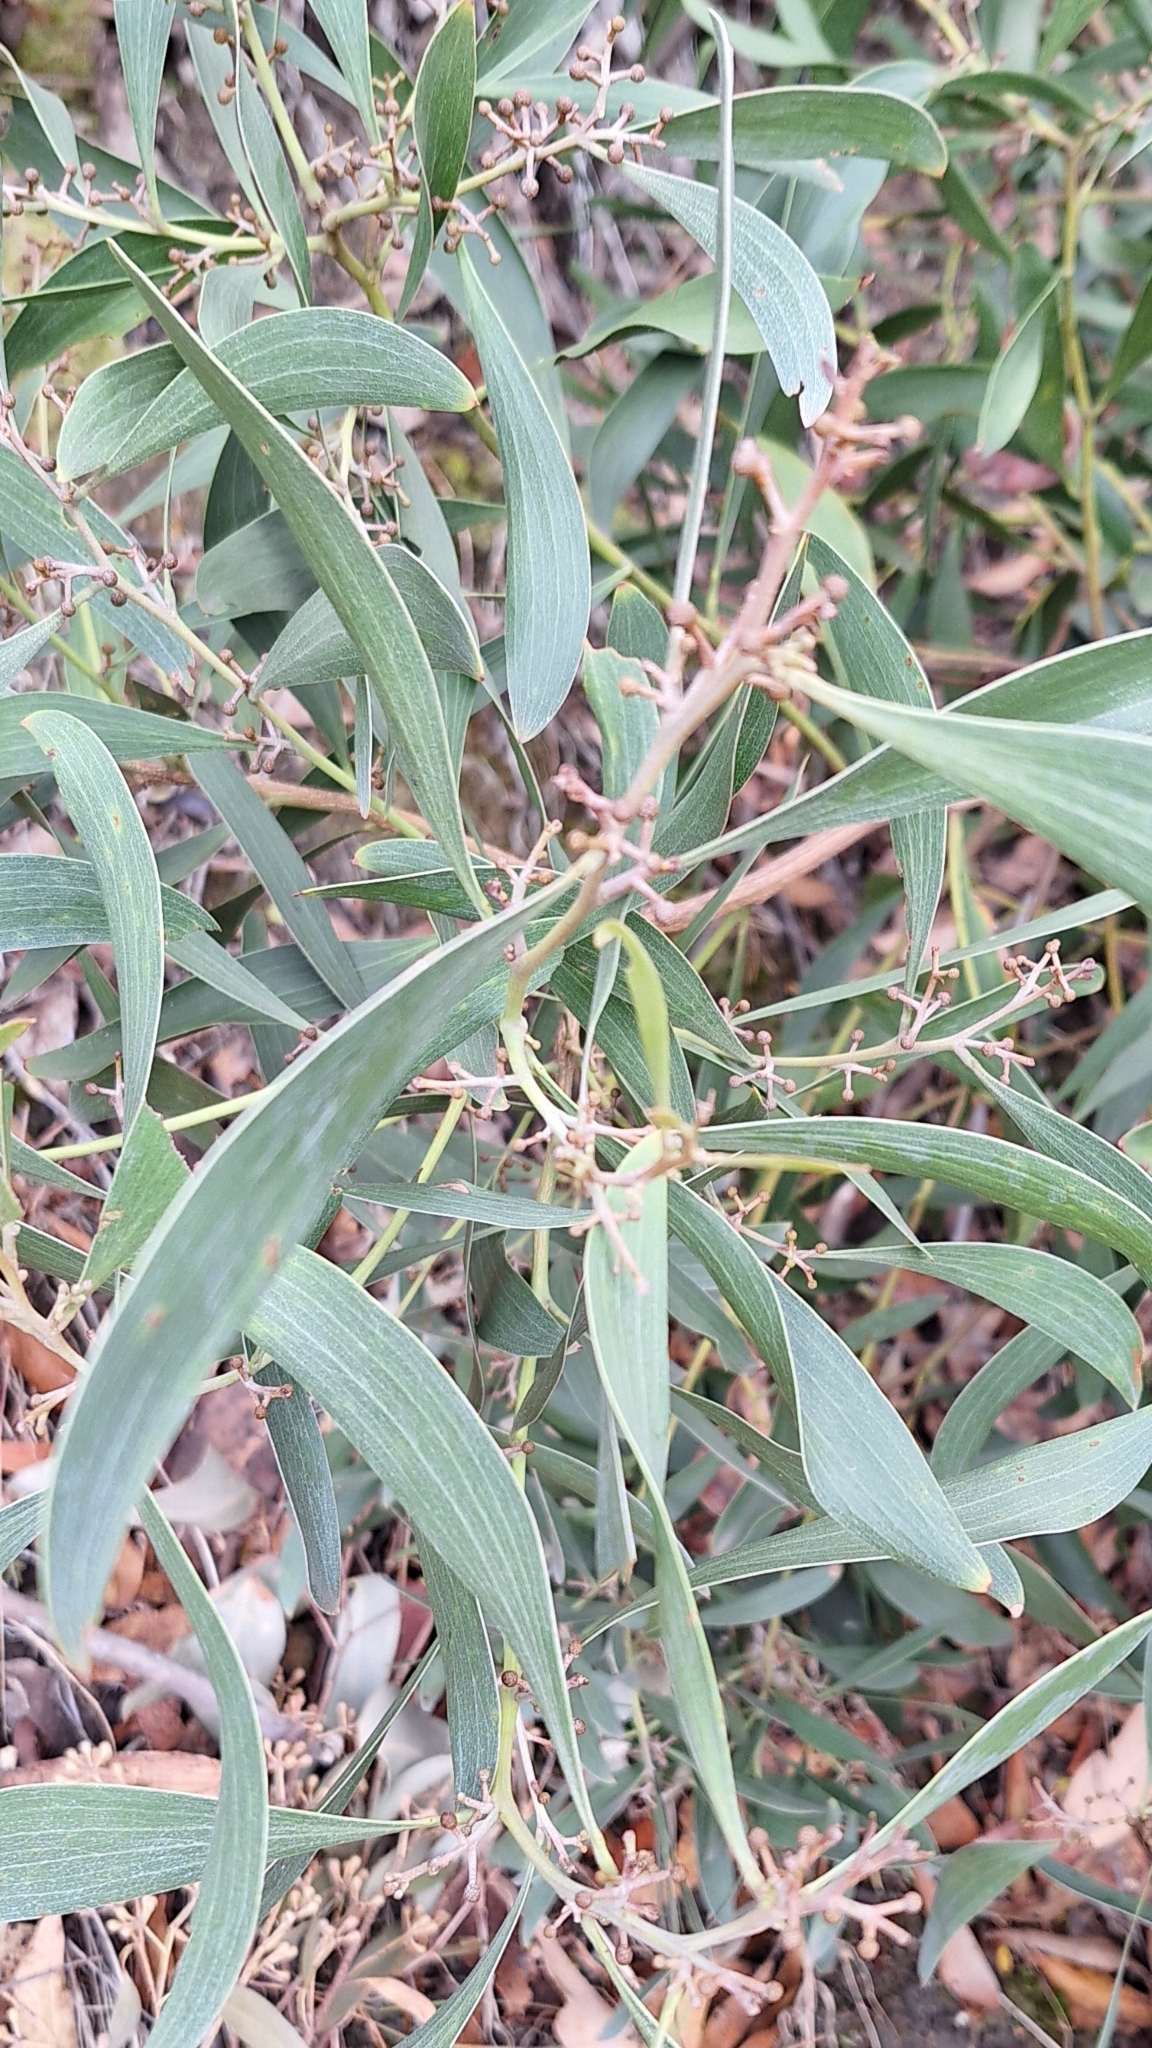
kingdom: Plantae
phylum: Tracheophyta
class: Magnoliopsida
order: Fabales
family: Fabaceae
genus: Acacia
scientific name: Acacia melanoxylon
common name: Blackwood
